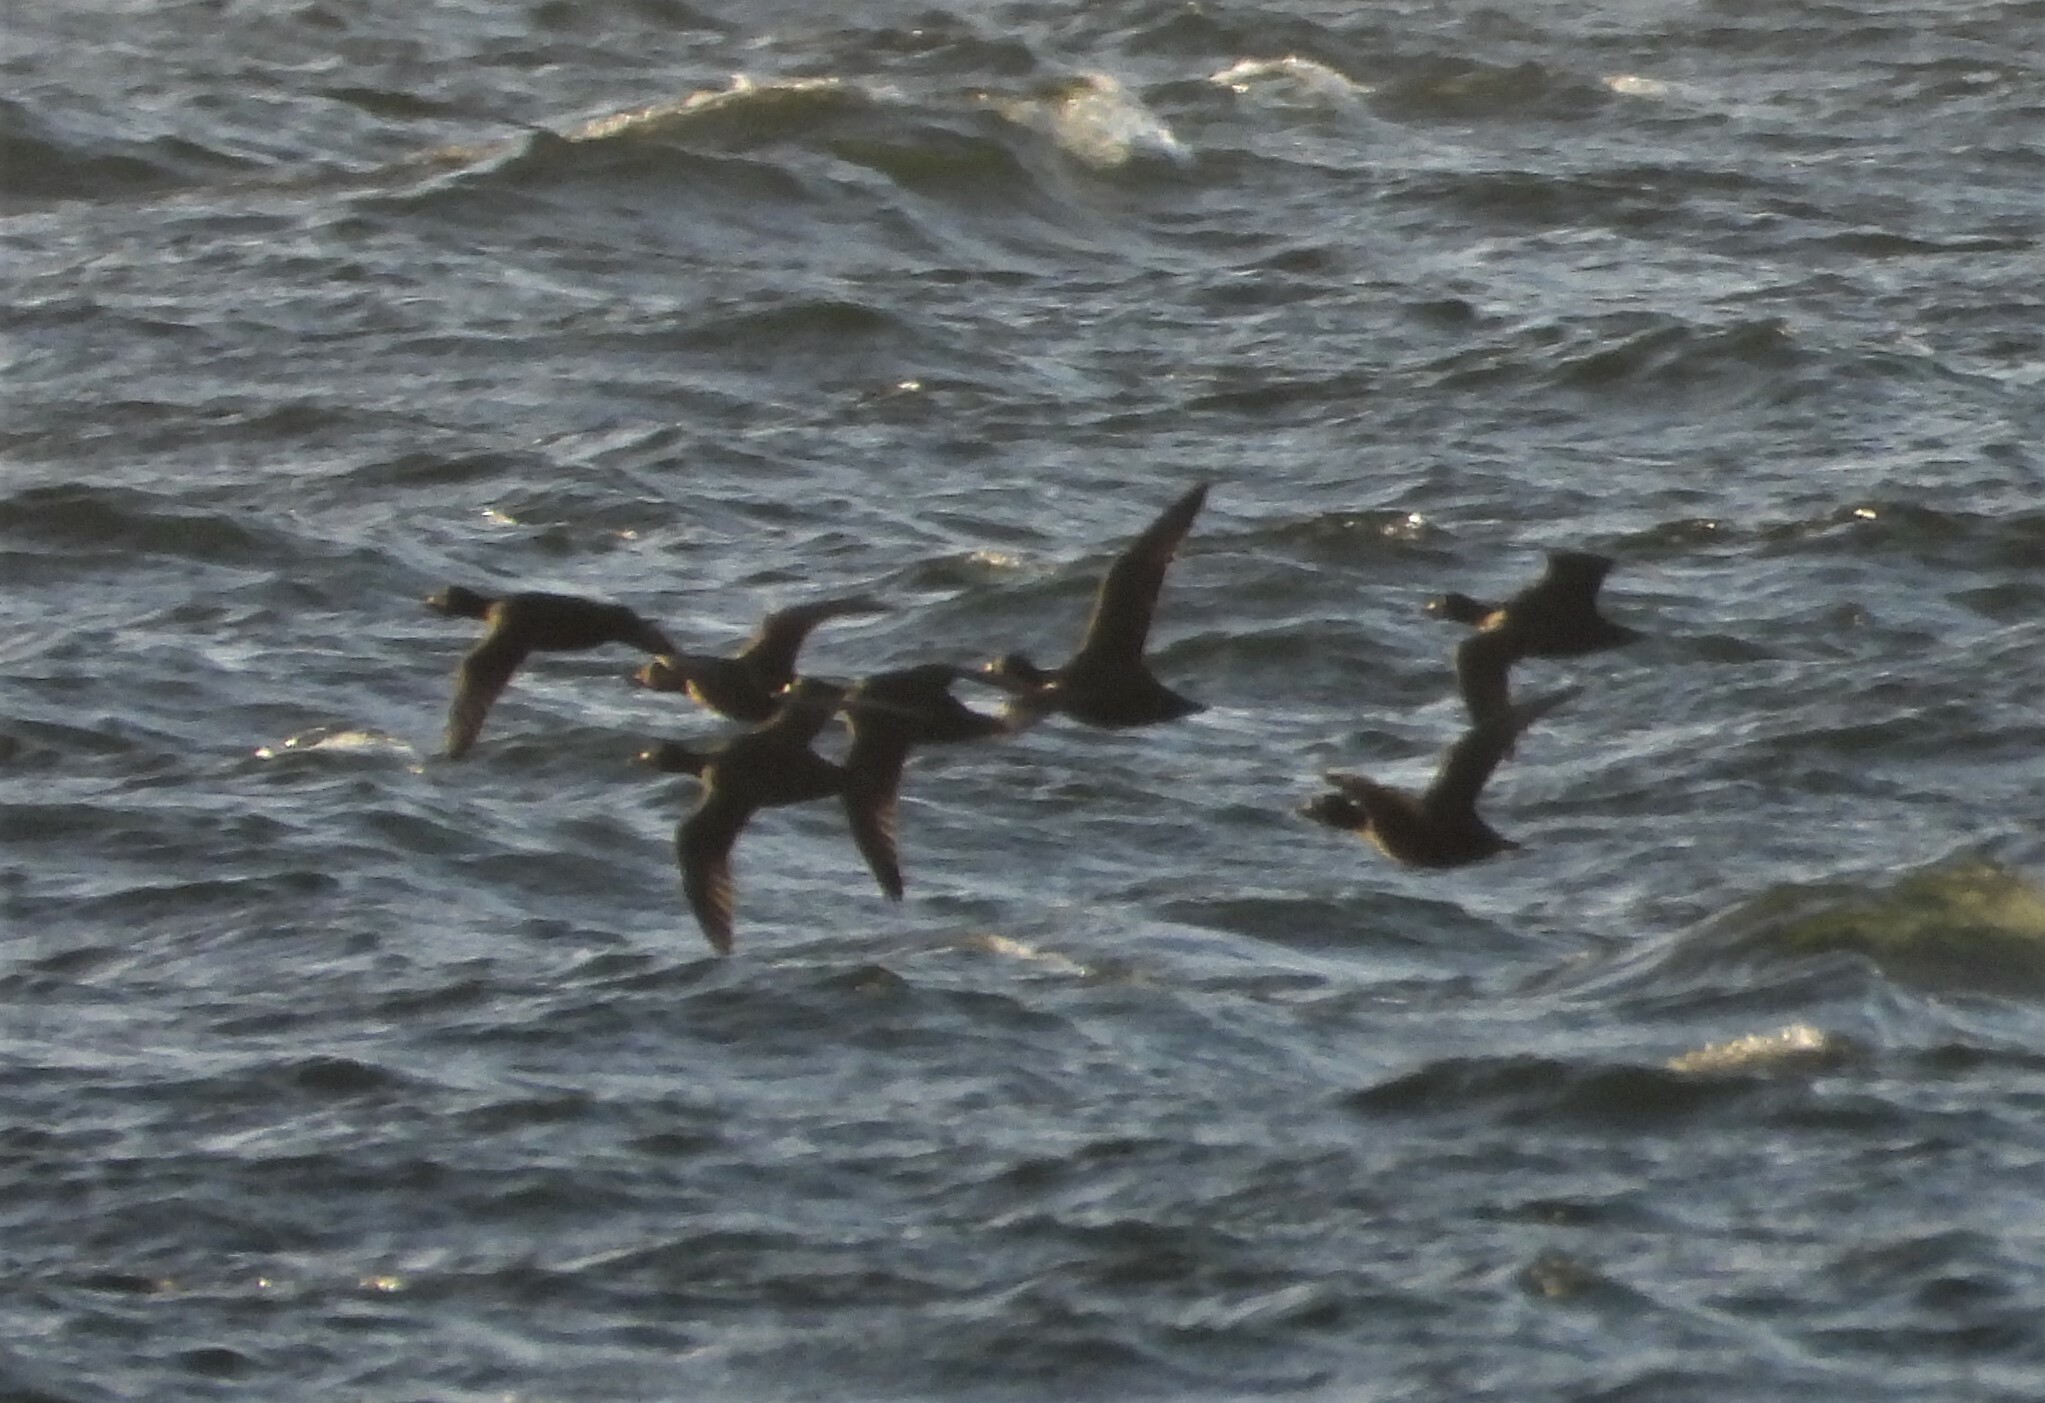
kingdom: Animalia
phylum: Chordata
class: Aves
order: Anseriformes
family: Anatidae
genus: Melanitta
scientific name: Melanitta nigra
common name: Common scoter
